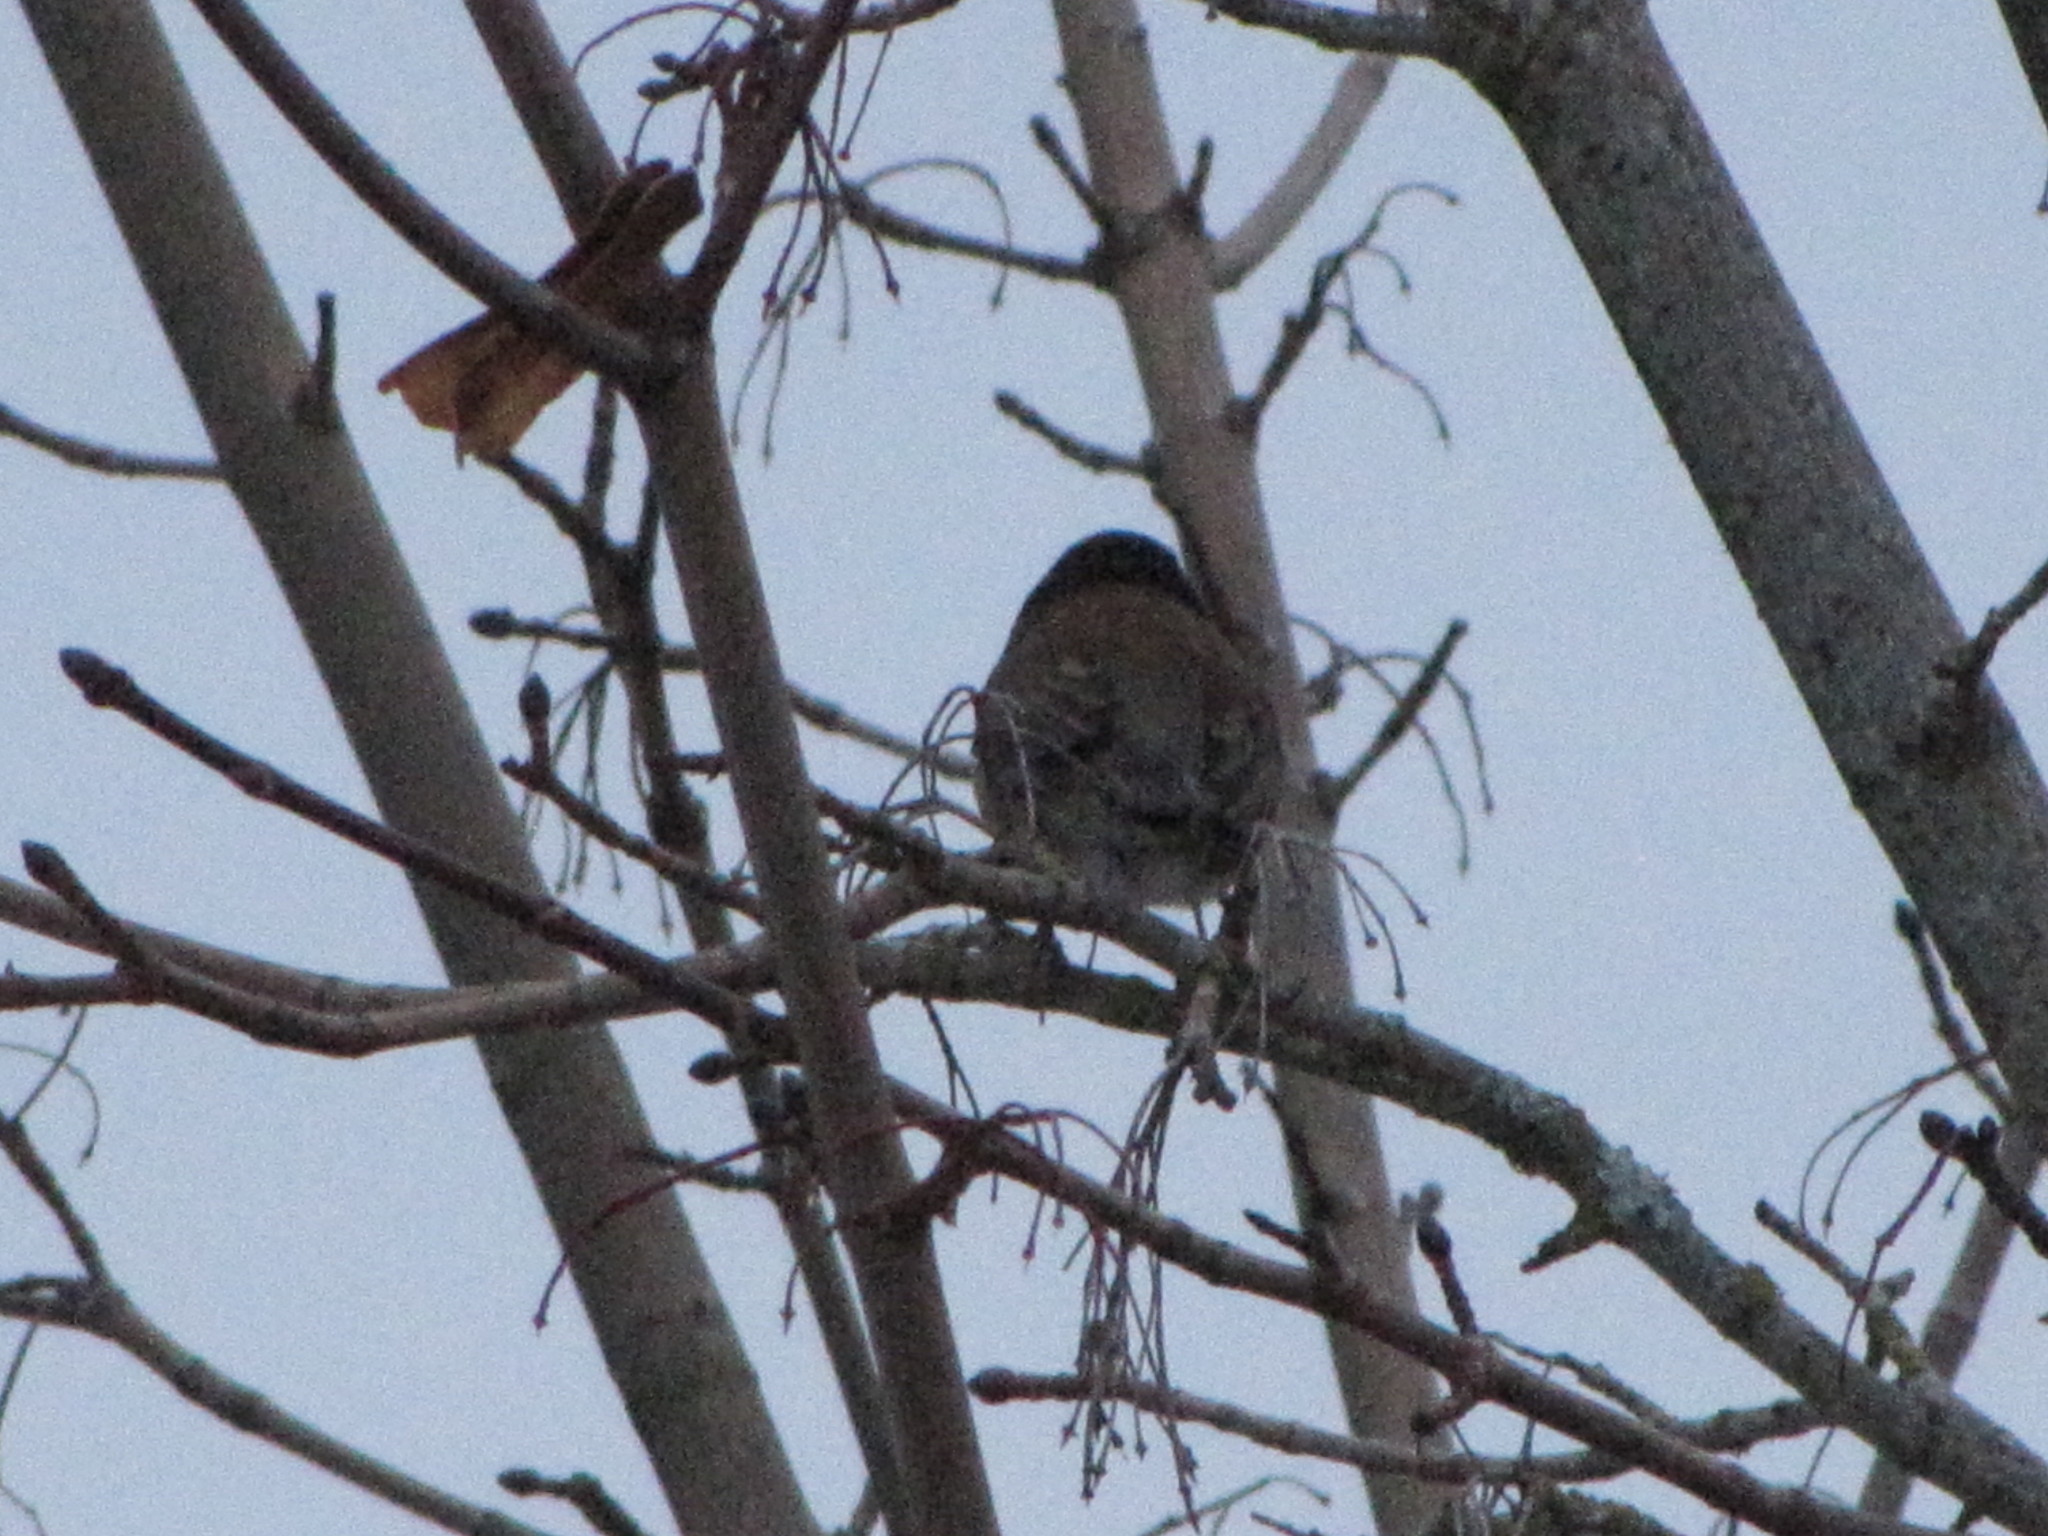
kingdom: Animalia
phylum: Chordata
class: Aves
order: Passeriformes
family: Passerellidae
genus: Junco
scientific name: Junco hyemalis
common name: Dark-eyed junco
